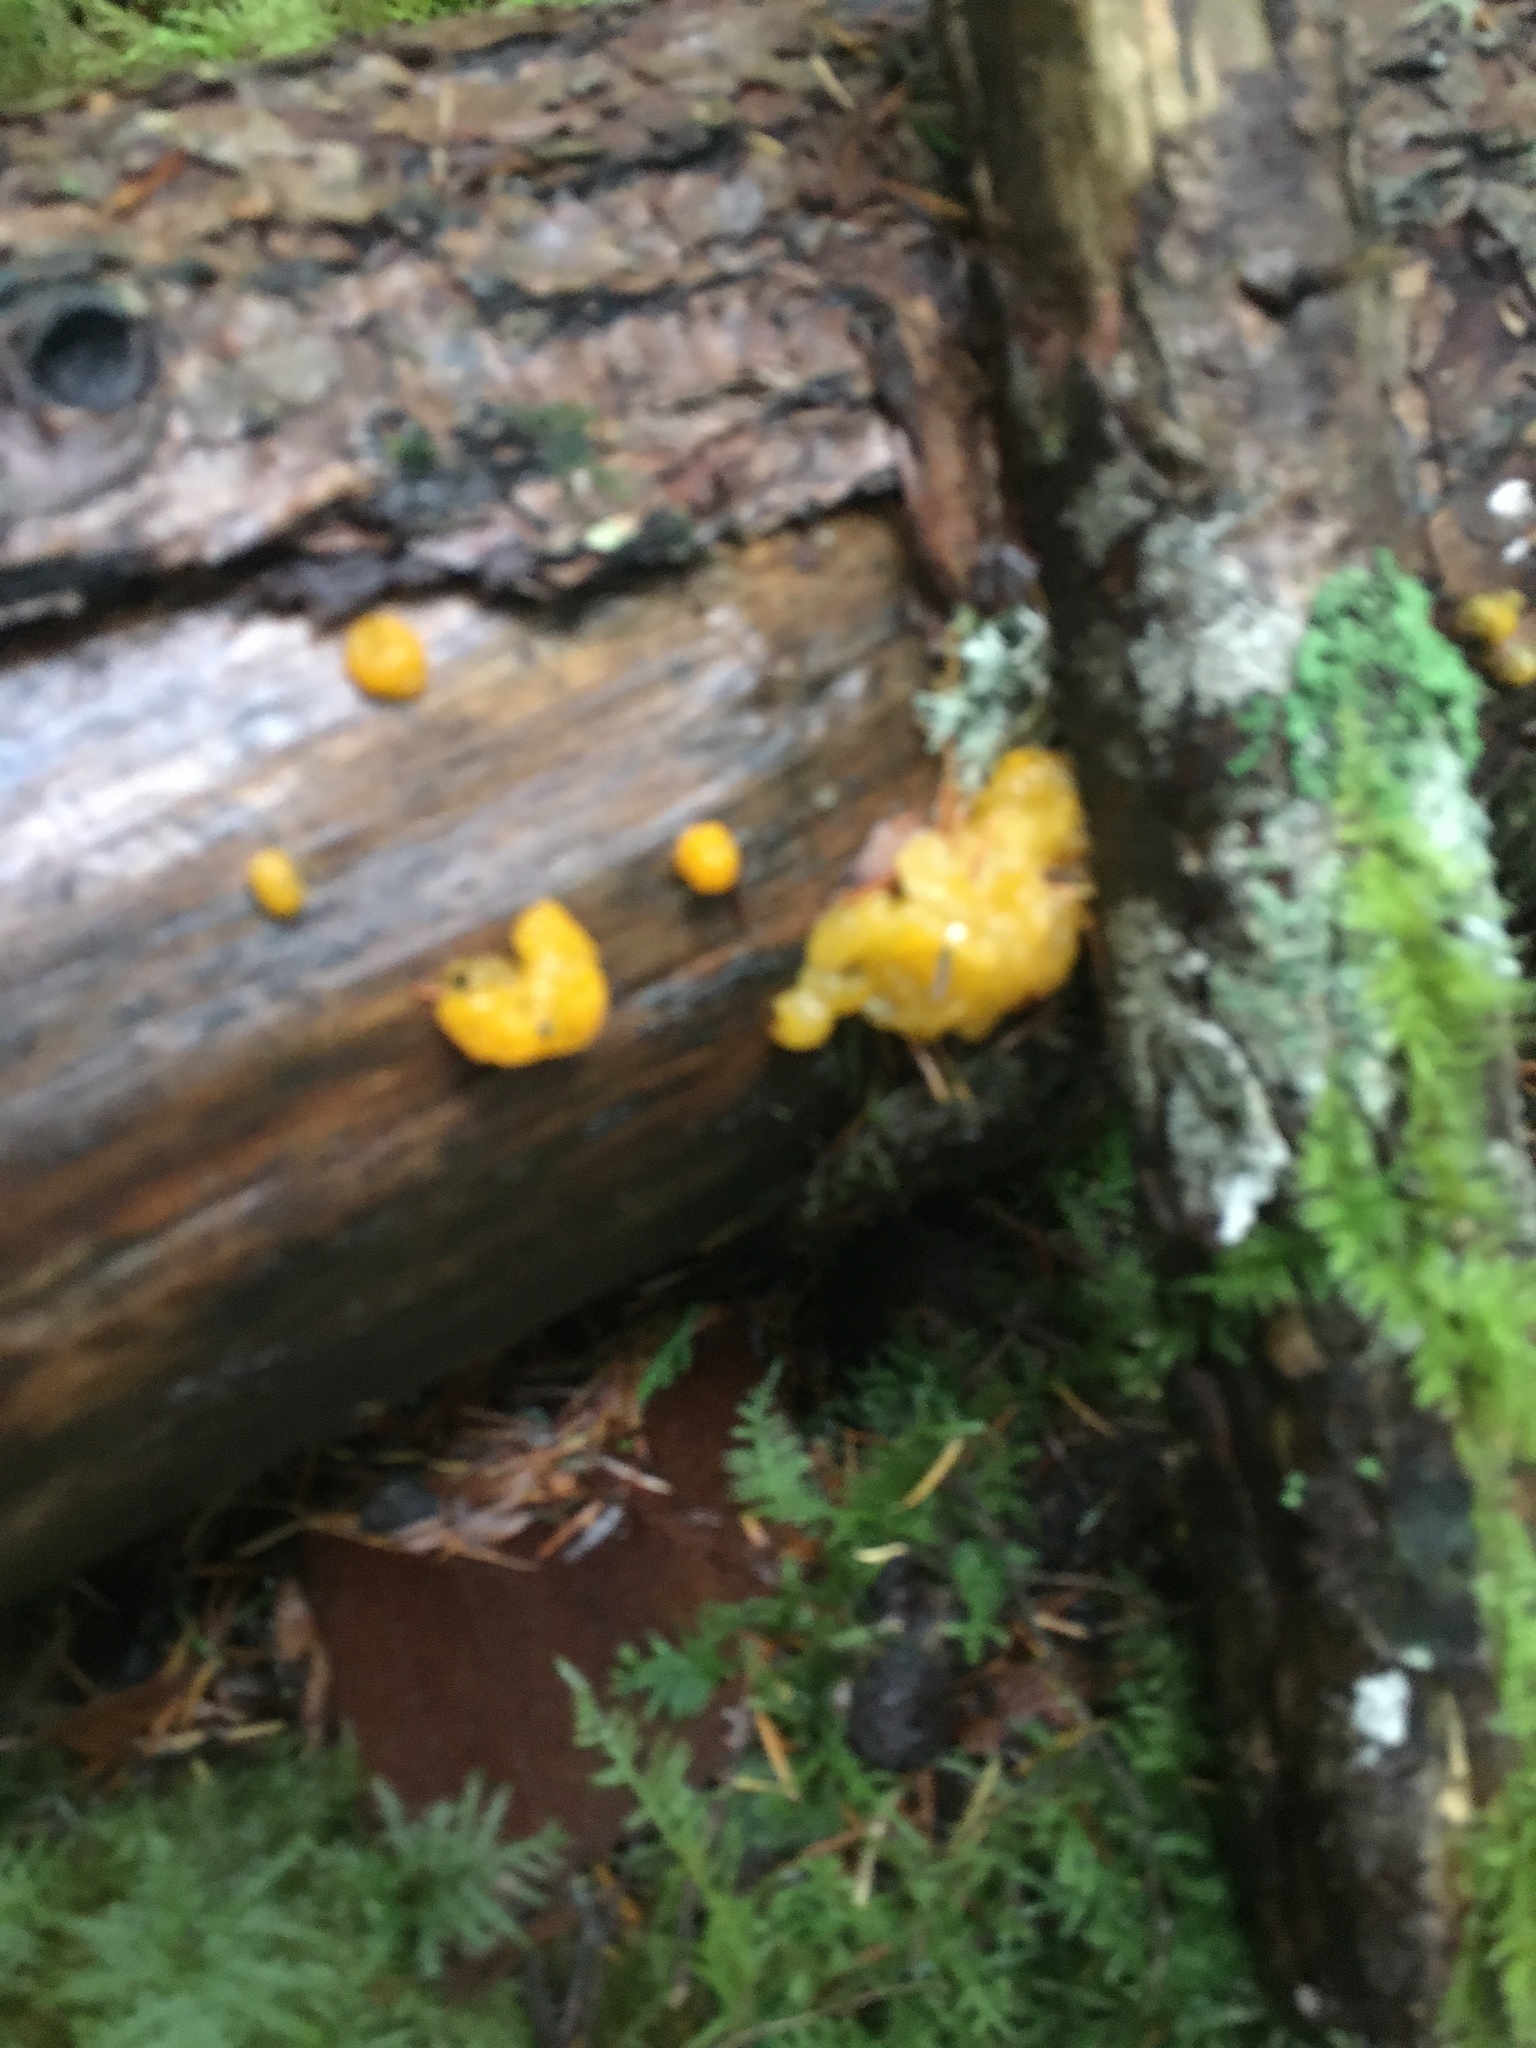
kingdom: Fungi
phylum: Basidiomycota
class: Dacrymycetes
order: Dacrymycetales
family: Dacrymycetaceae
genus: Dacrymyces
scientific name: Dacrymyces chrysospermus
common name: Orange jelly spot
